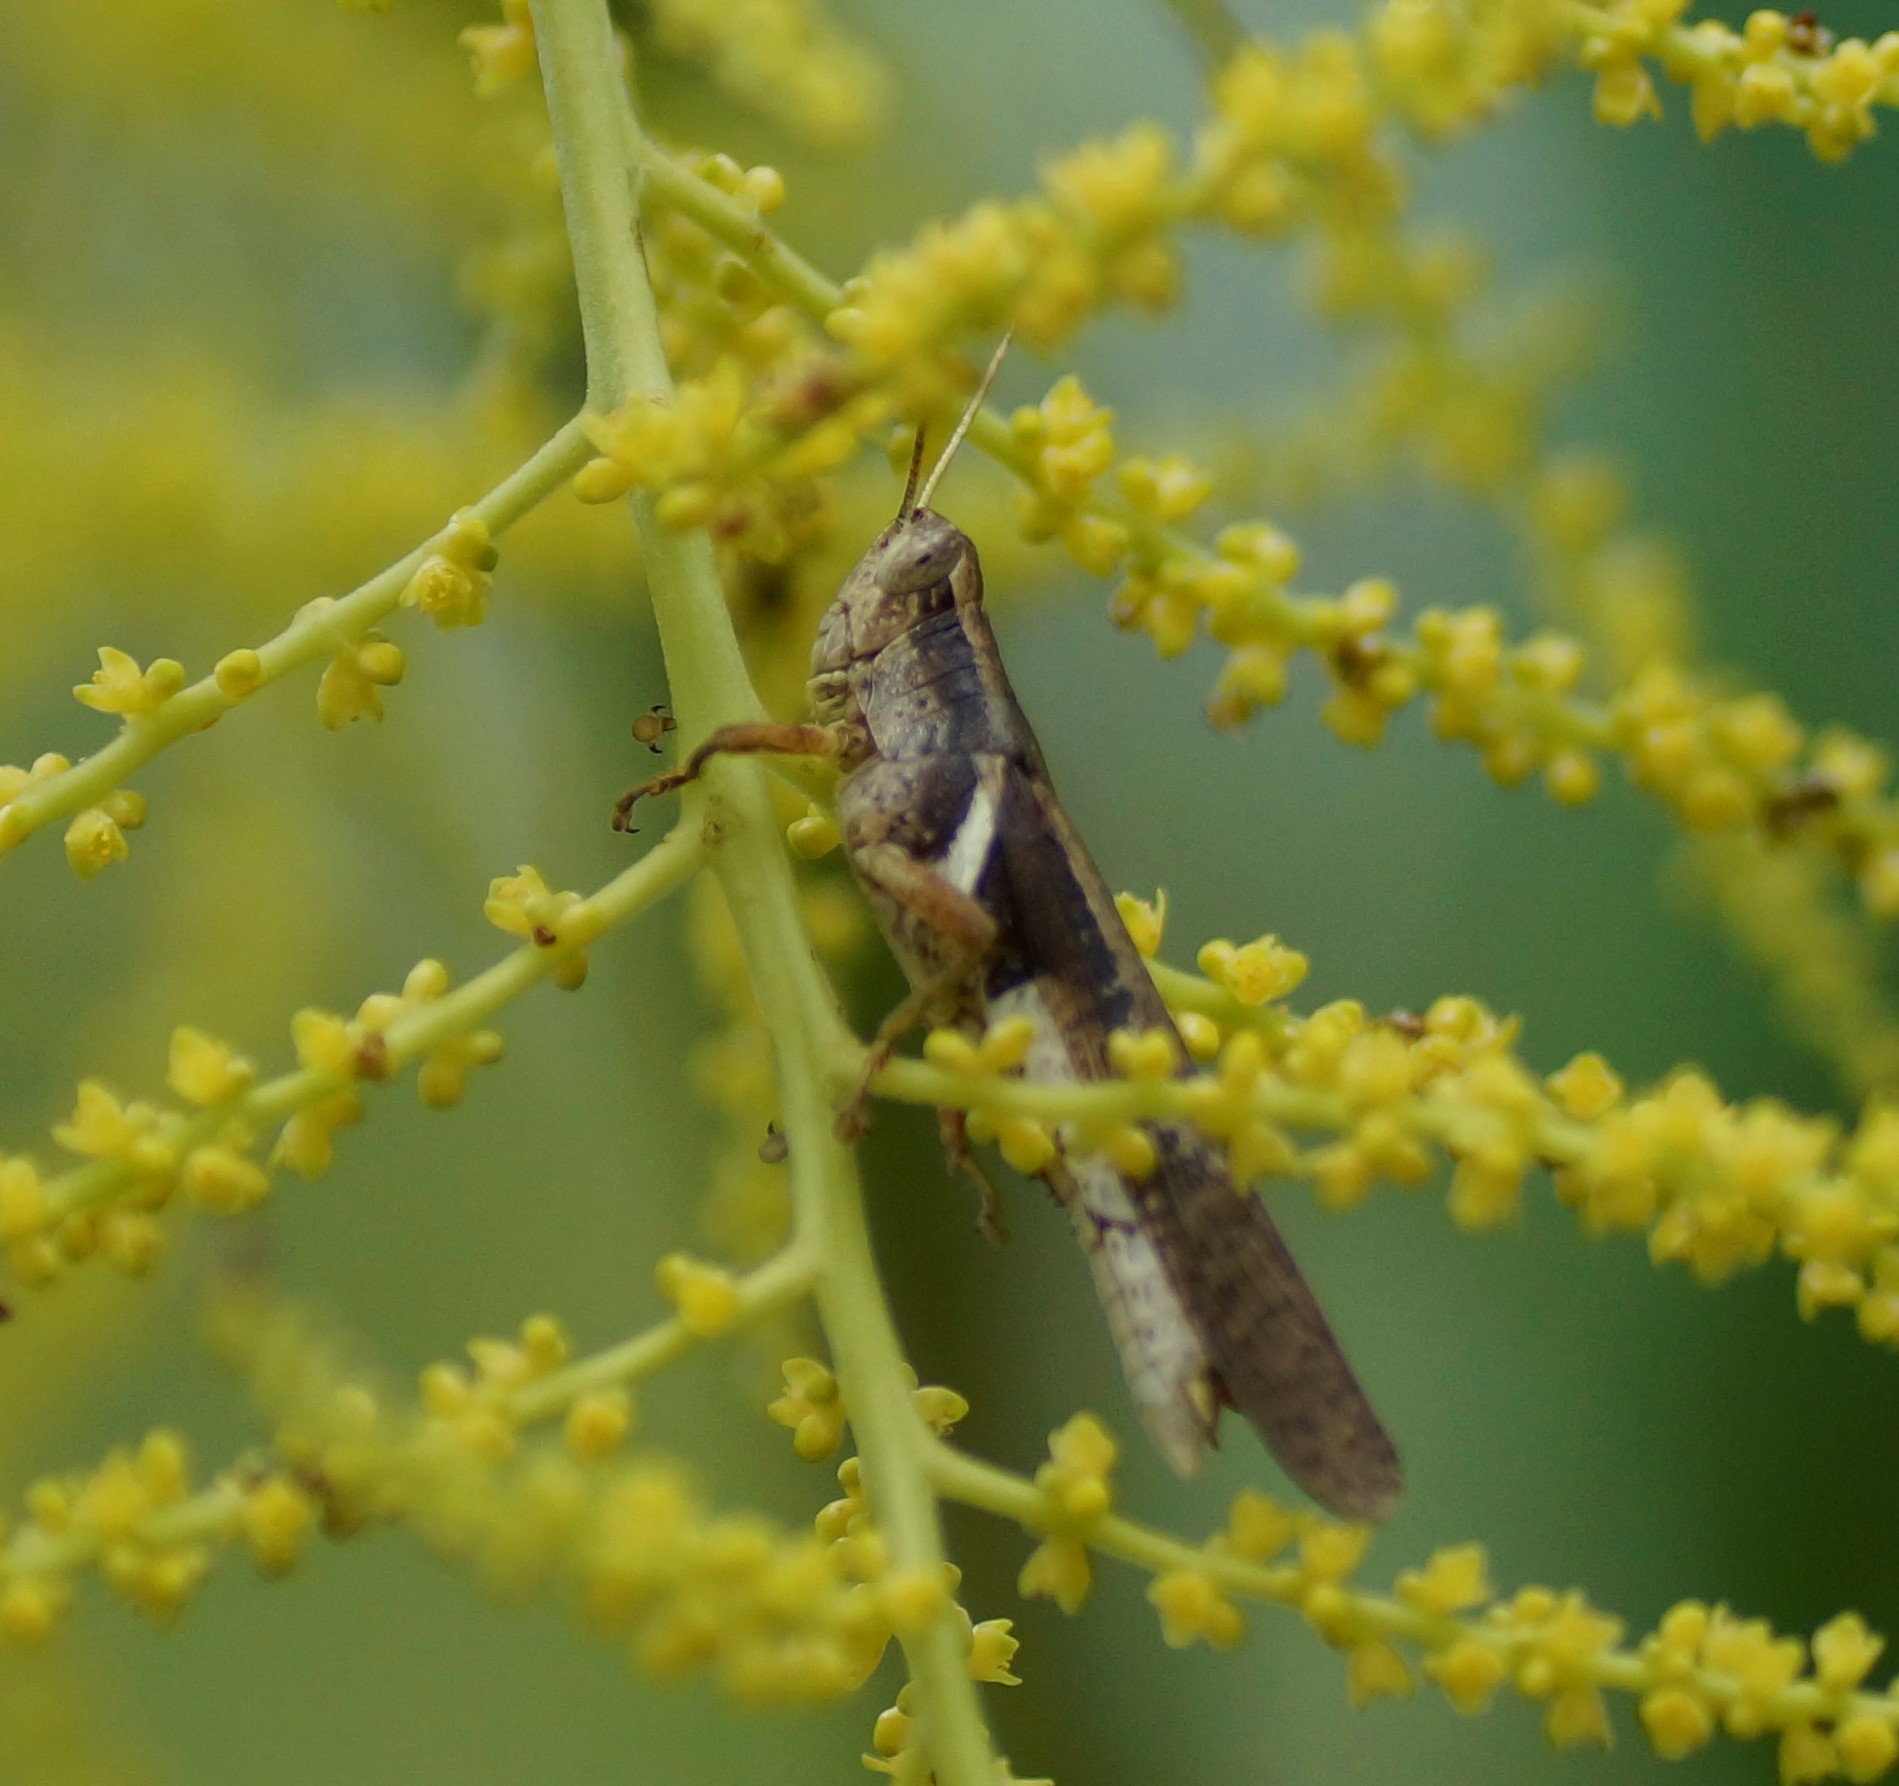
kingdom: Animalia
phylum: Arthropoda
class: Insecta
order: Orthoptera
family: Acrididae
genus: Stenocatantops
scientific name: Stenocatantops angustifrons
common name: Common tropical sharptail
